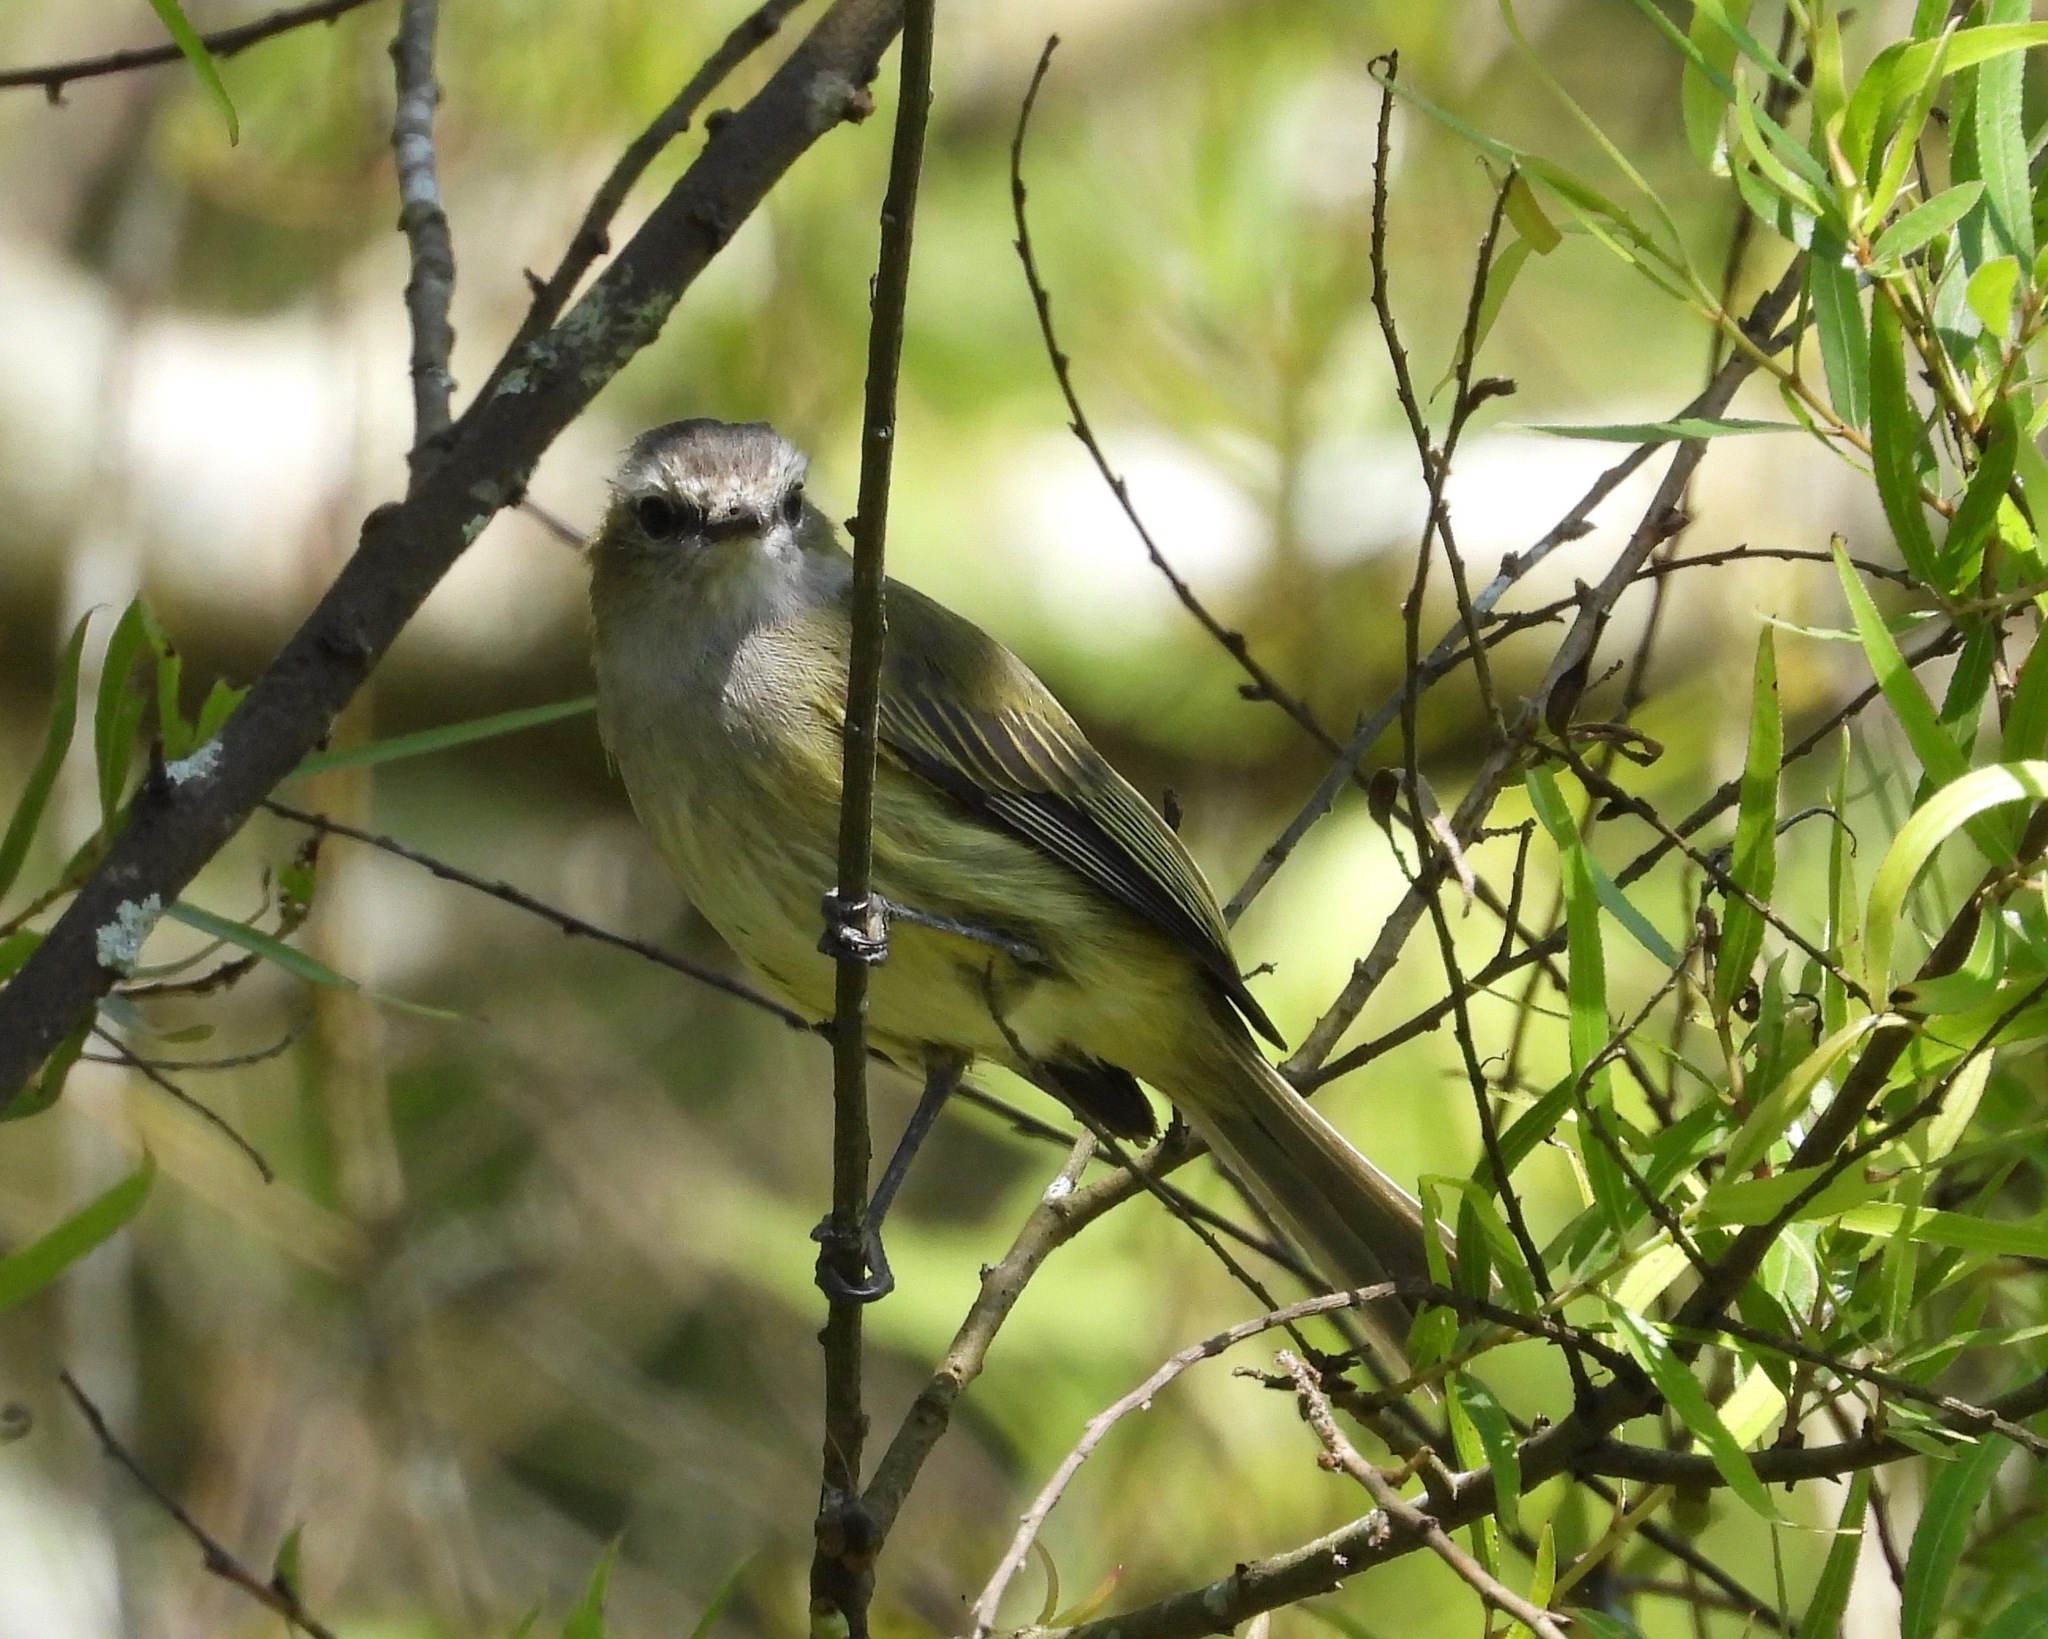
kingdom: Animalia
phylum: Chordata
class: Aves
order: Passeriformes
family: Tyrannidae
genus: Zimmerius
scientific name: Zimmerius vilissimus
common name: Paltry tyrannulet
